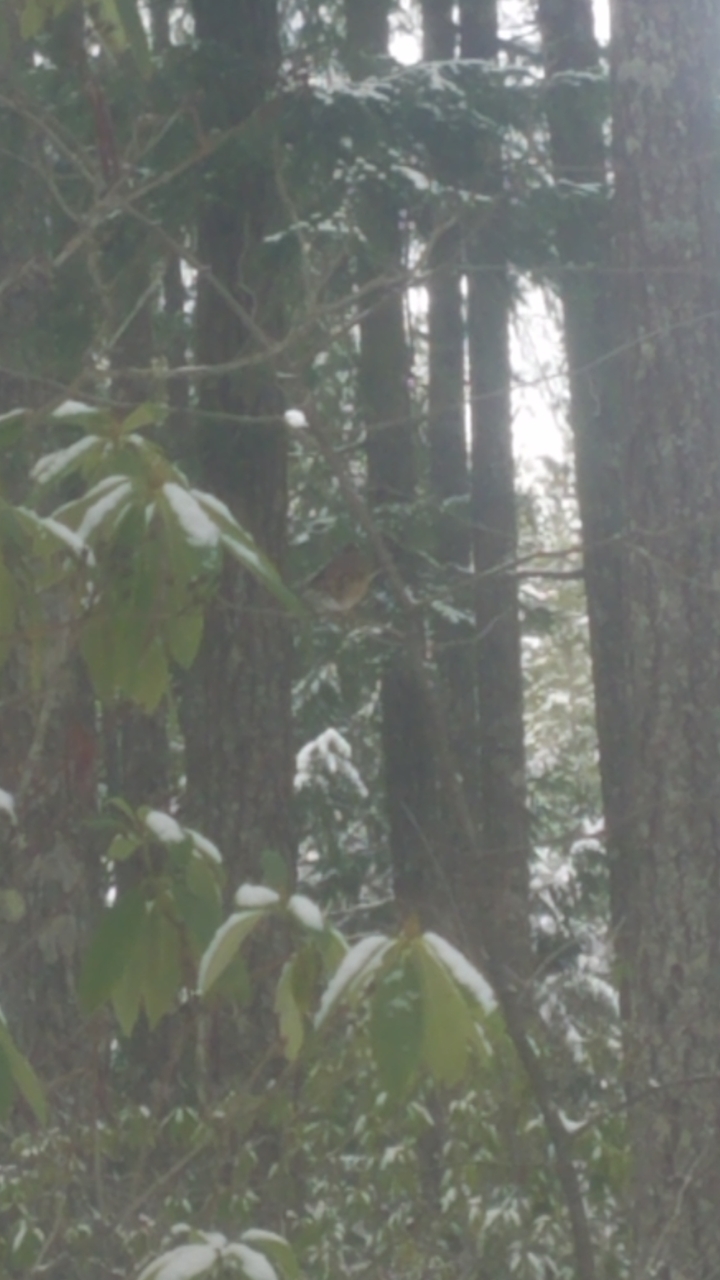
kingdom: Animalia
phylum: Chordata
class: Aves
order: Passeriformes
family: Turdidae
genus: Ixoreus
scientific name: Ixoreus naevius
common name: Varied thrush
